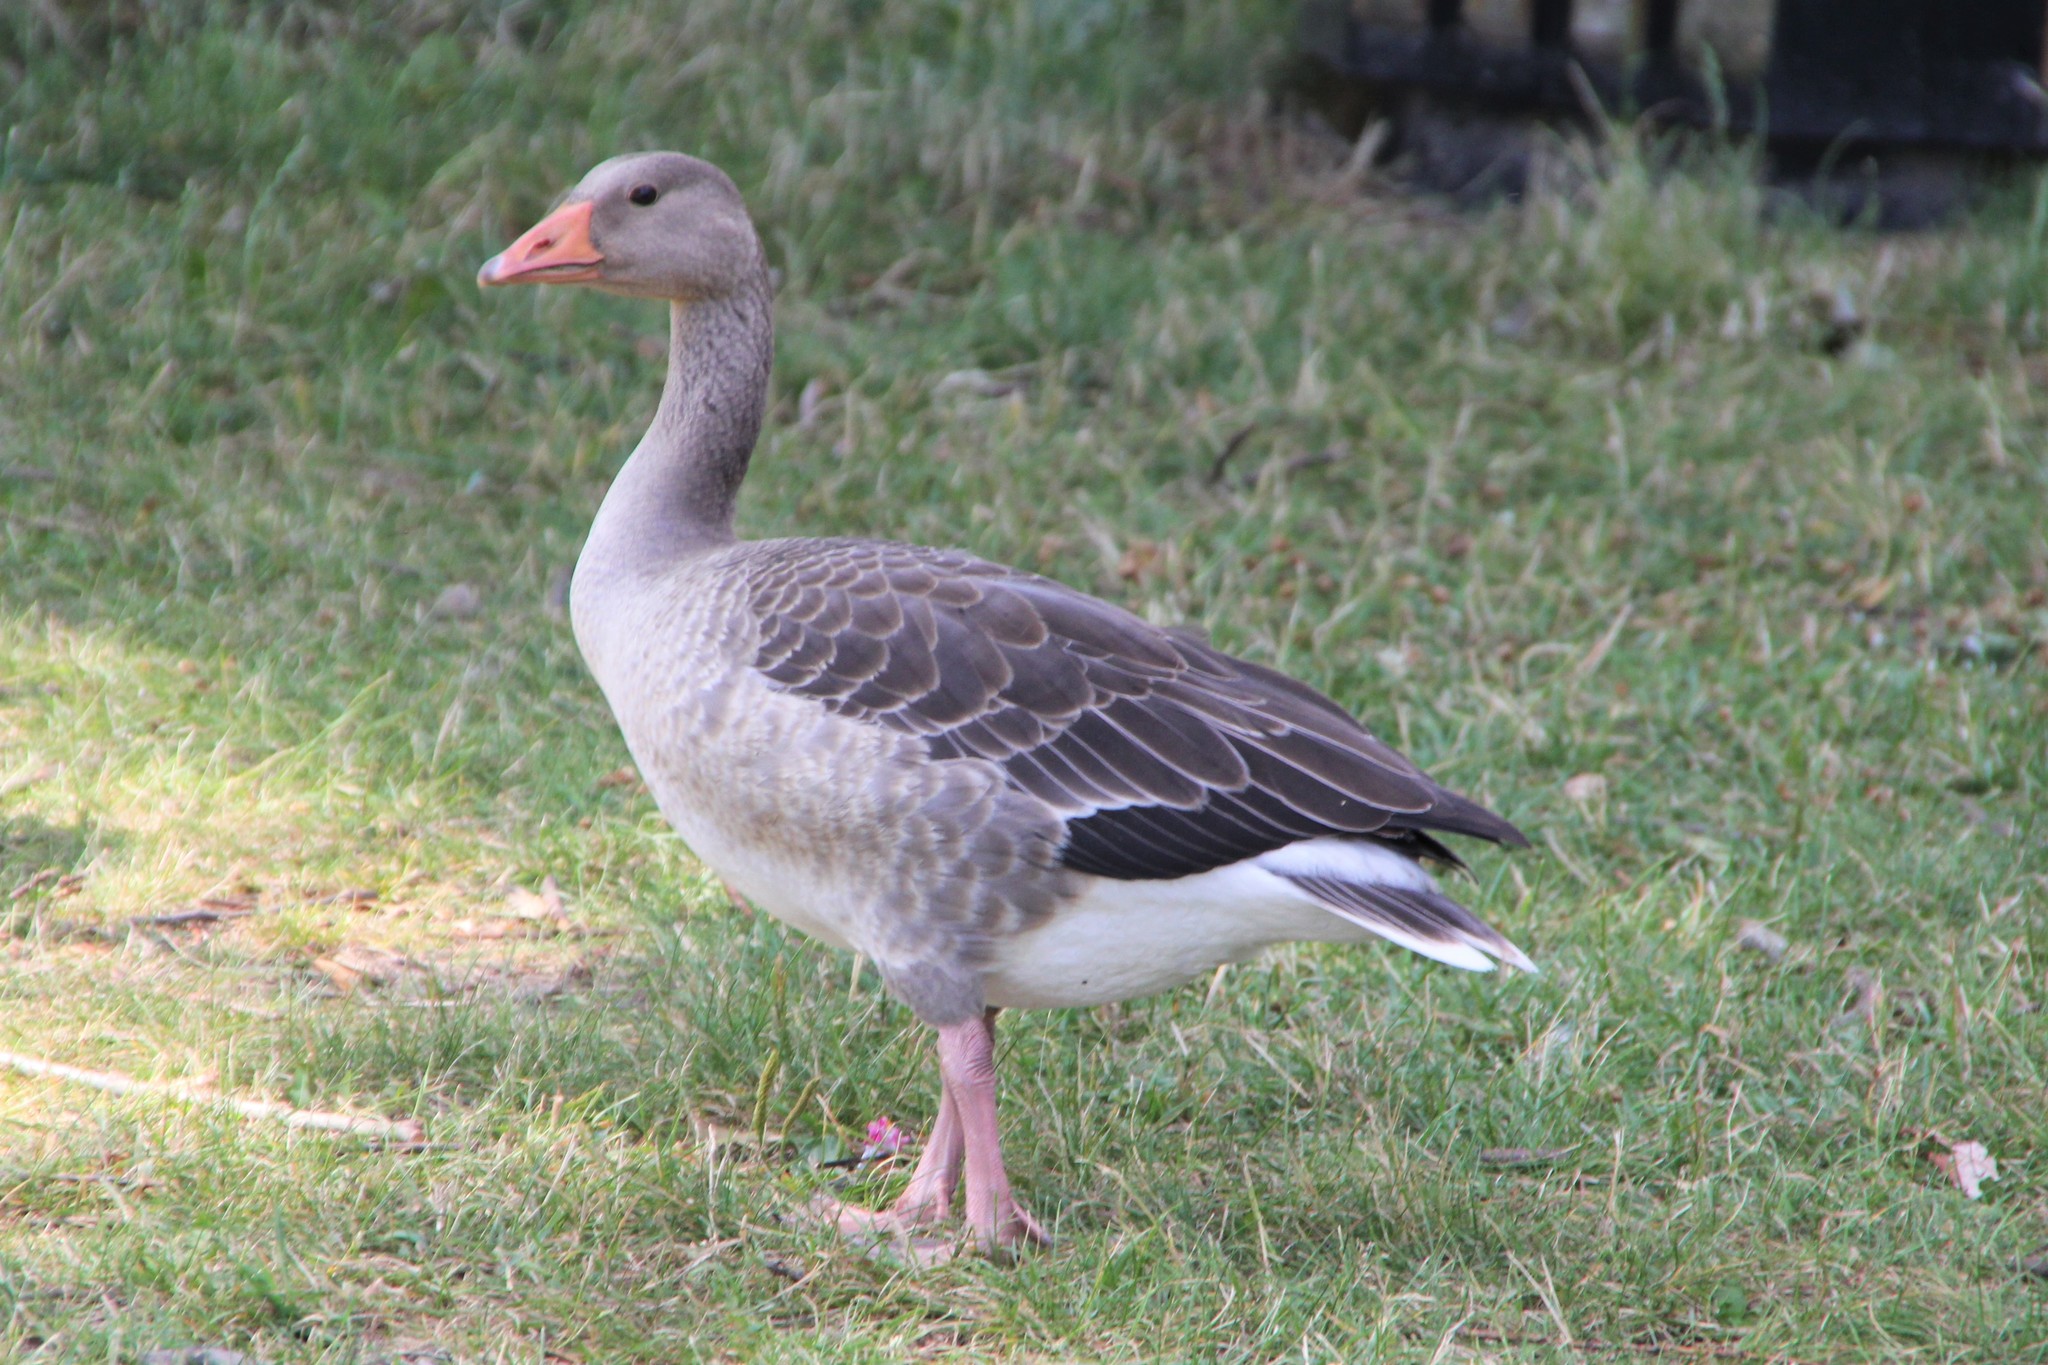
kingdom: Animalia
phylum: Chordata
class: Aves
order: Anseriformes
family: Anatidae
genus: Anser
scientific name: Anser anser
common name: Greylag goose
